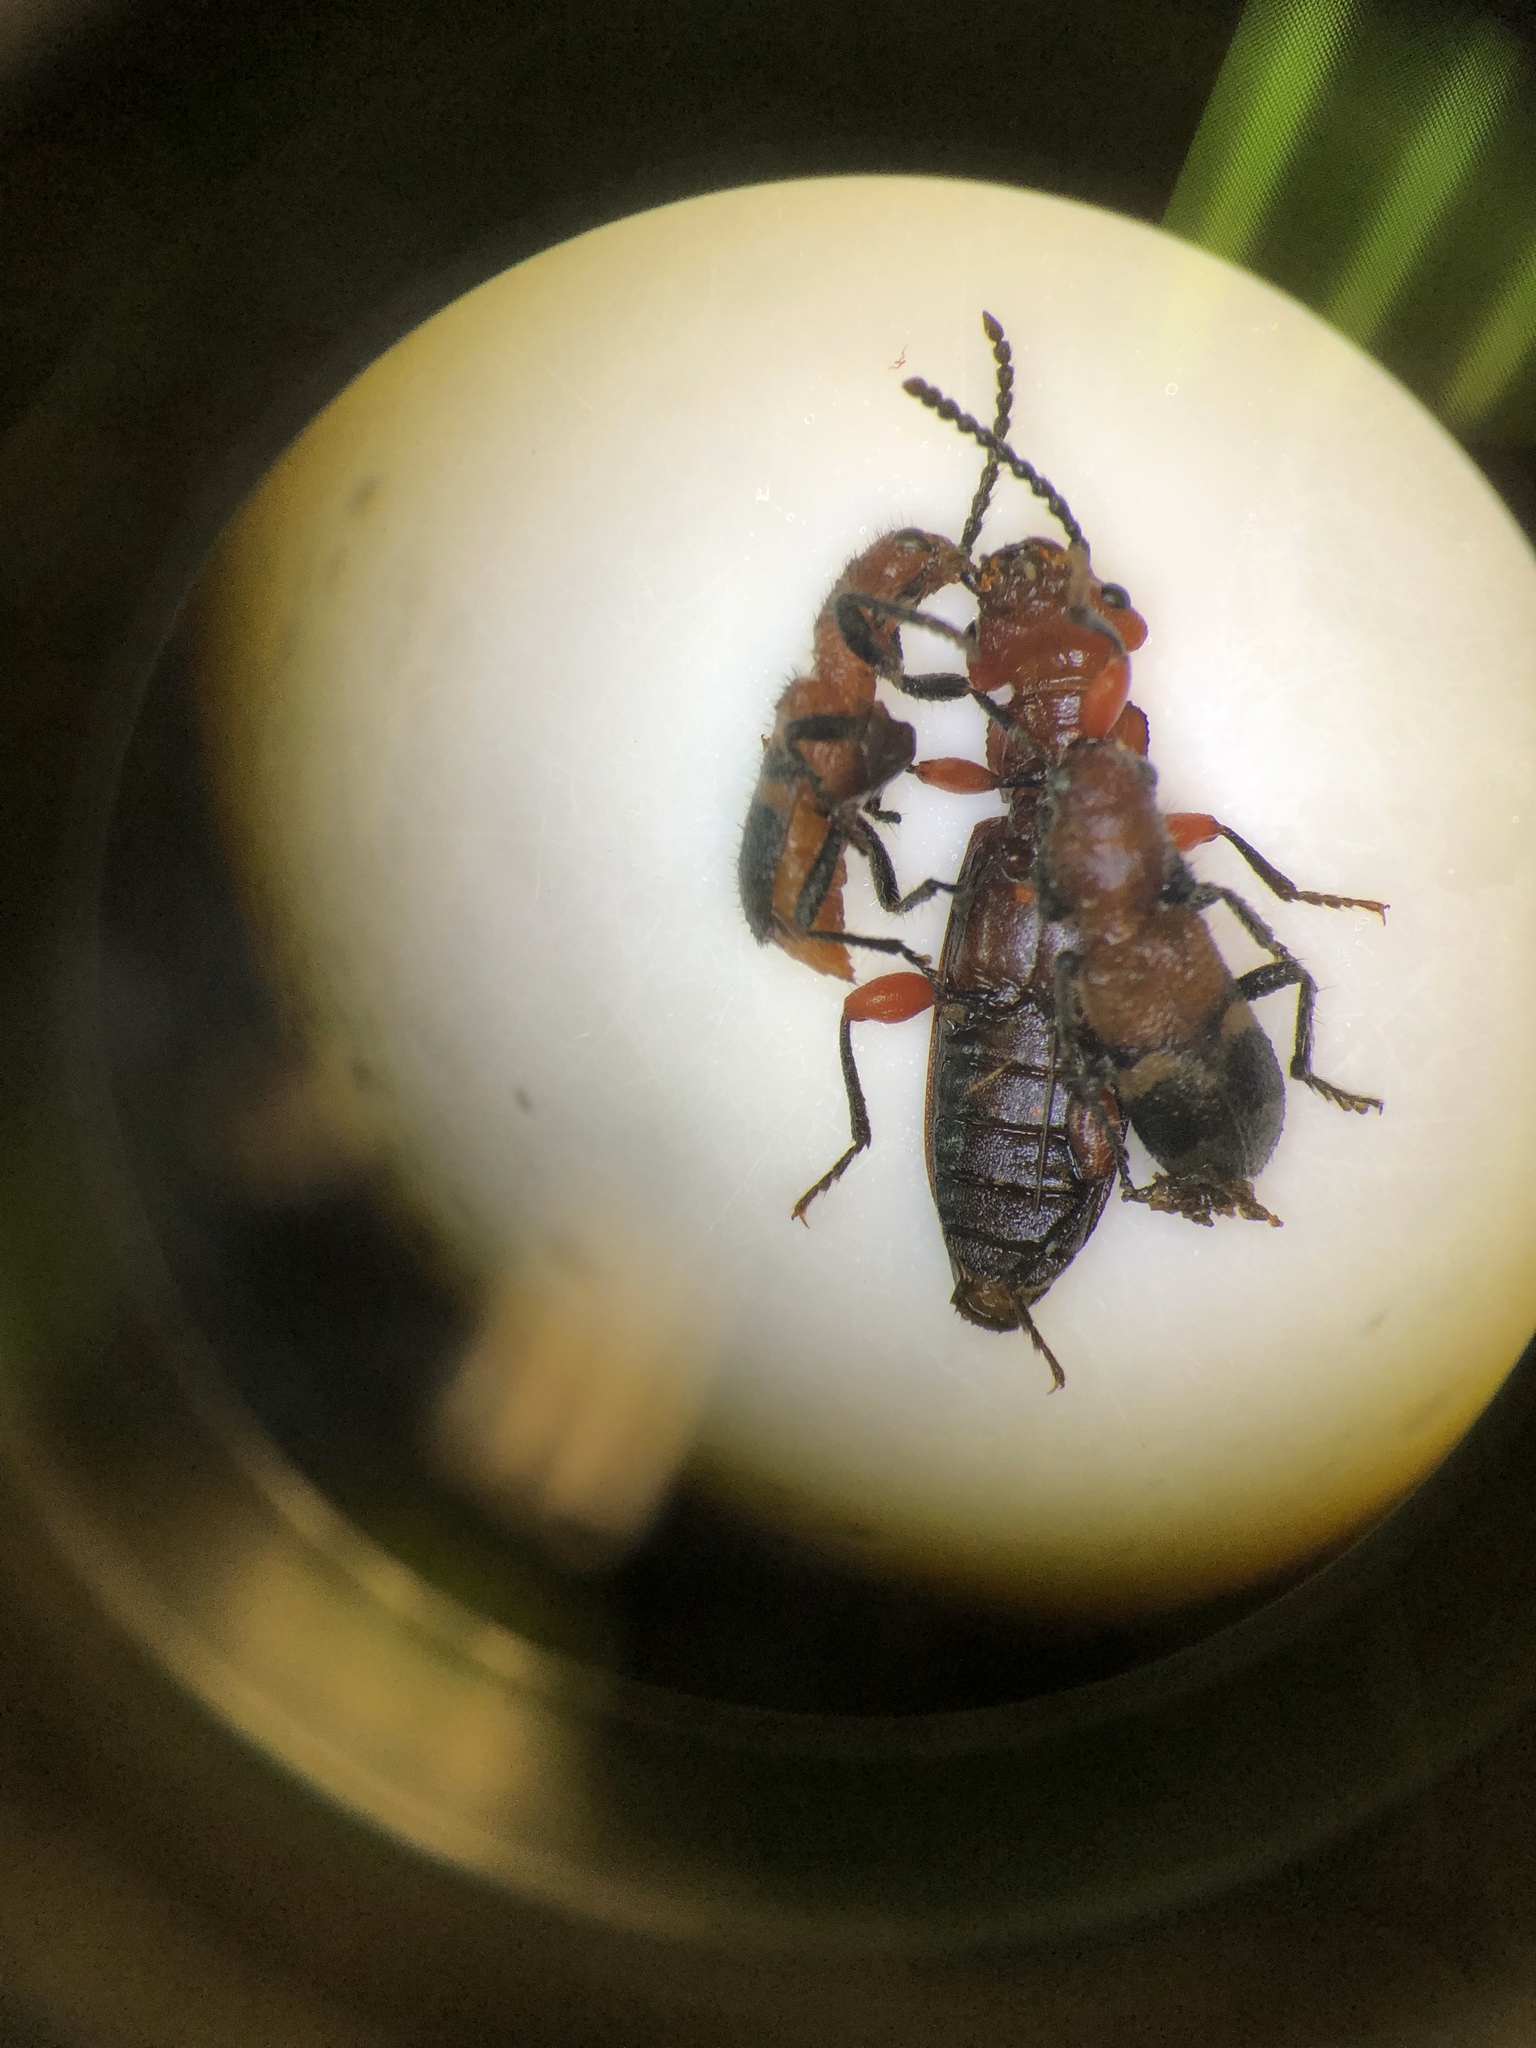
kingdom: Animalia
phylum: Arthropoda
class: Insecta
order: Coleoptera
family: Cleridae
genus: Enoclerus
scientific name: Enoclerus nigripes
